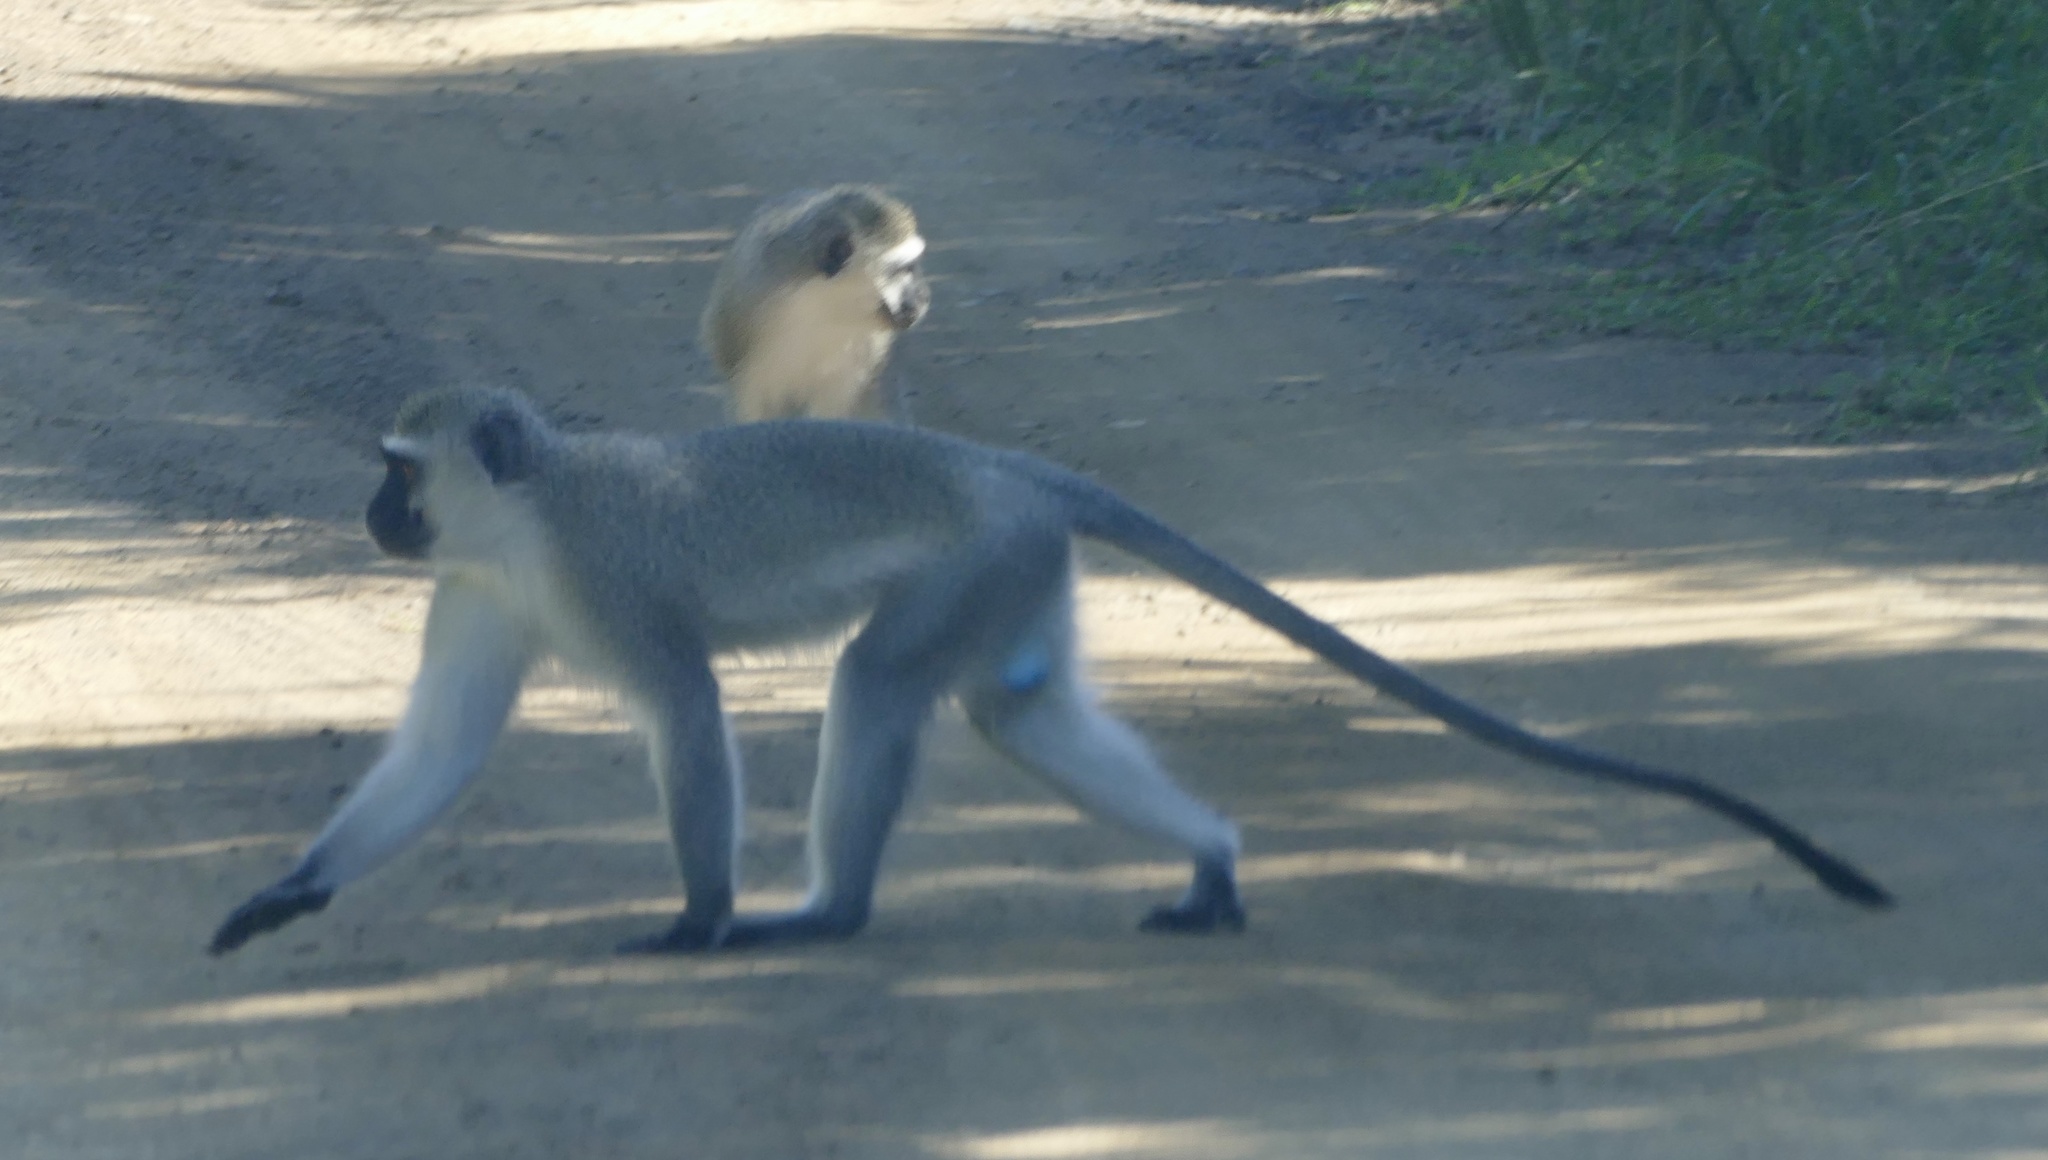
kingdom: Animalia
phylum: Chordata
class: Mammalia
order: Primates
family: Cercopithecidae
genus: Chlorocebus
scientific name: Chlorocebus pygerythrus
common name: Vervet monkey
